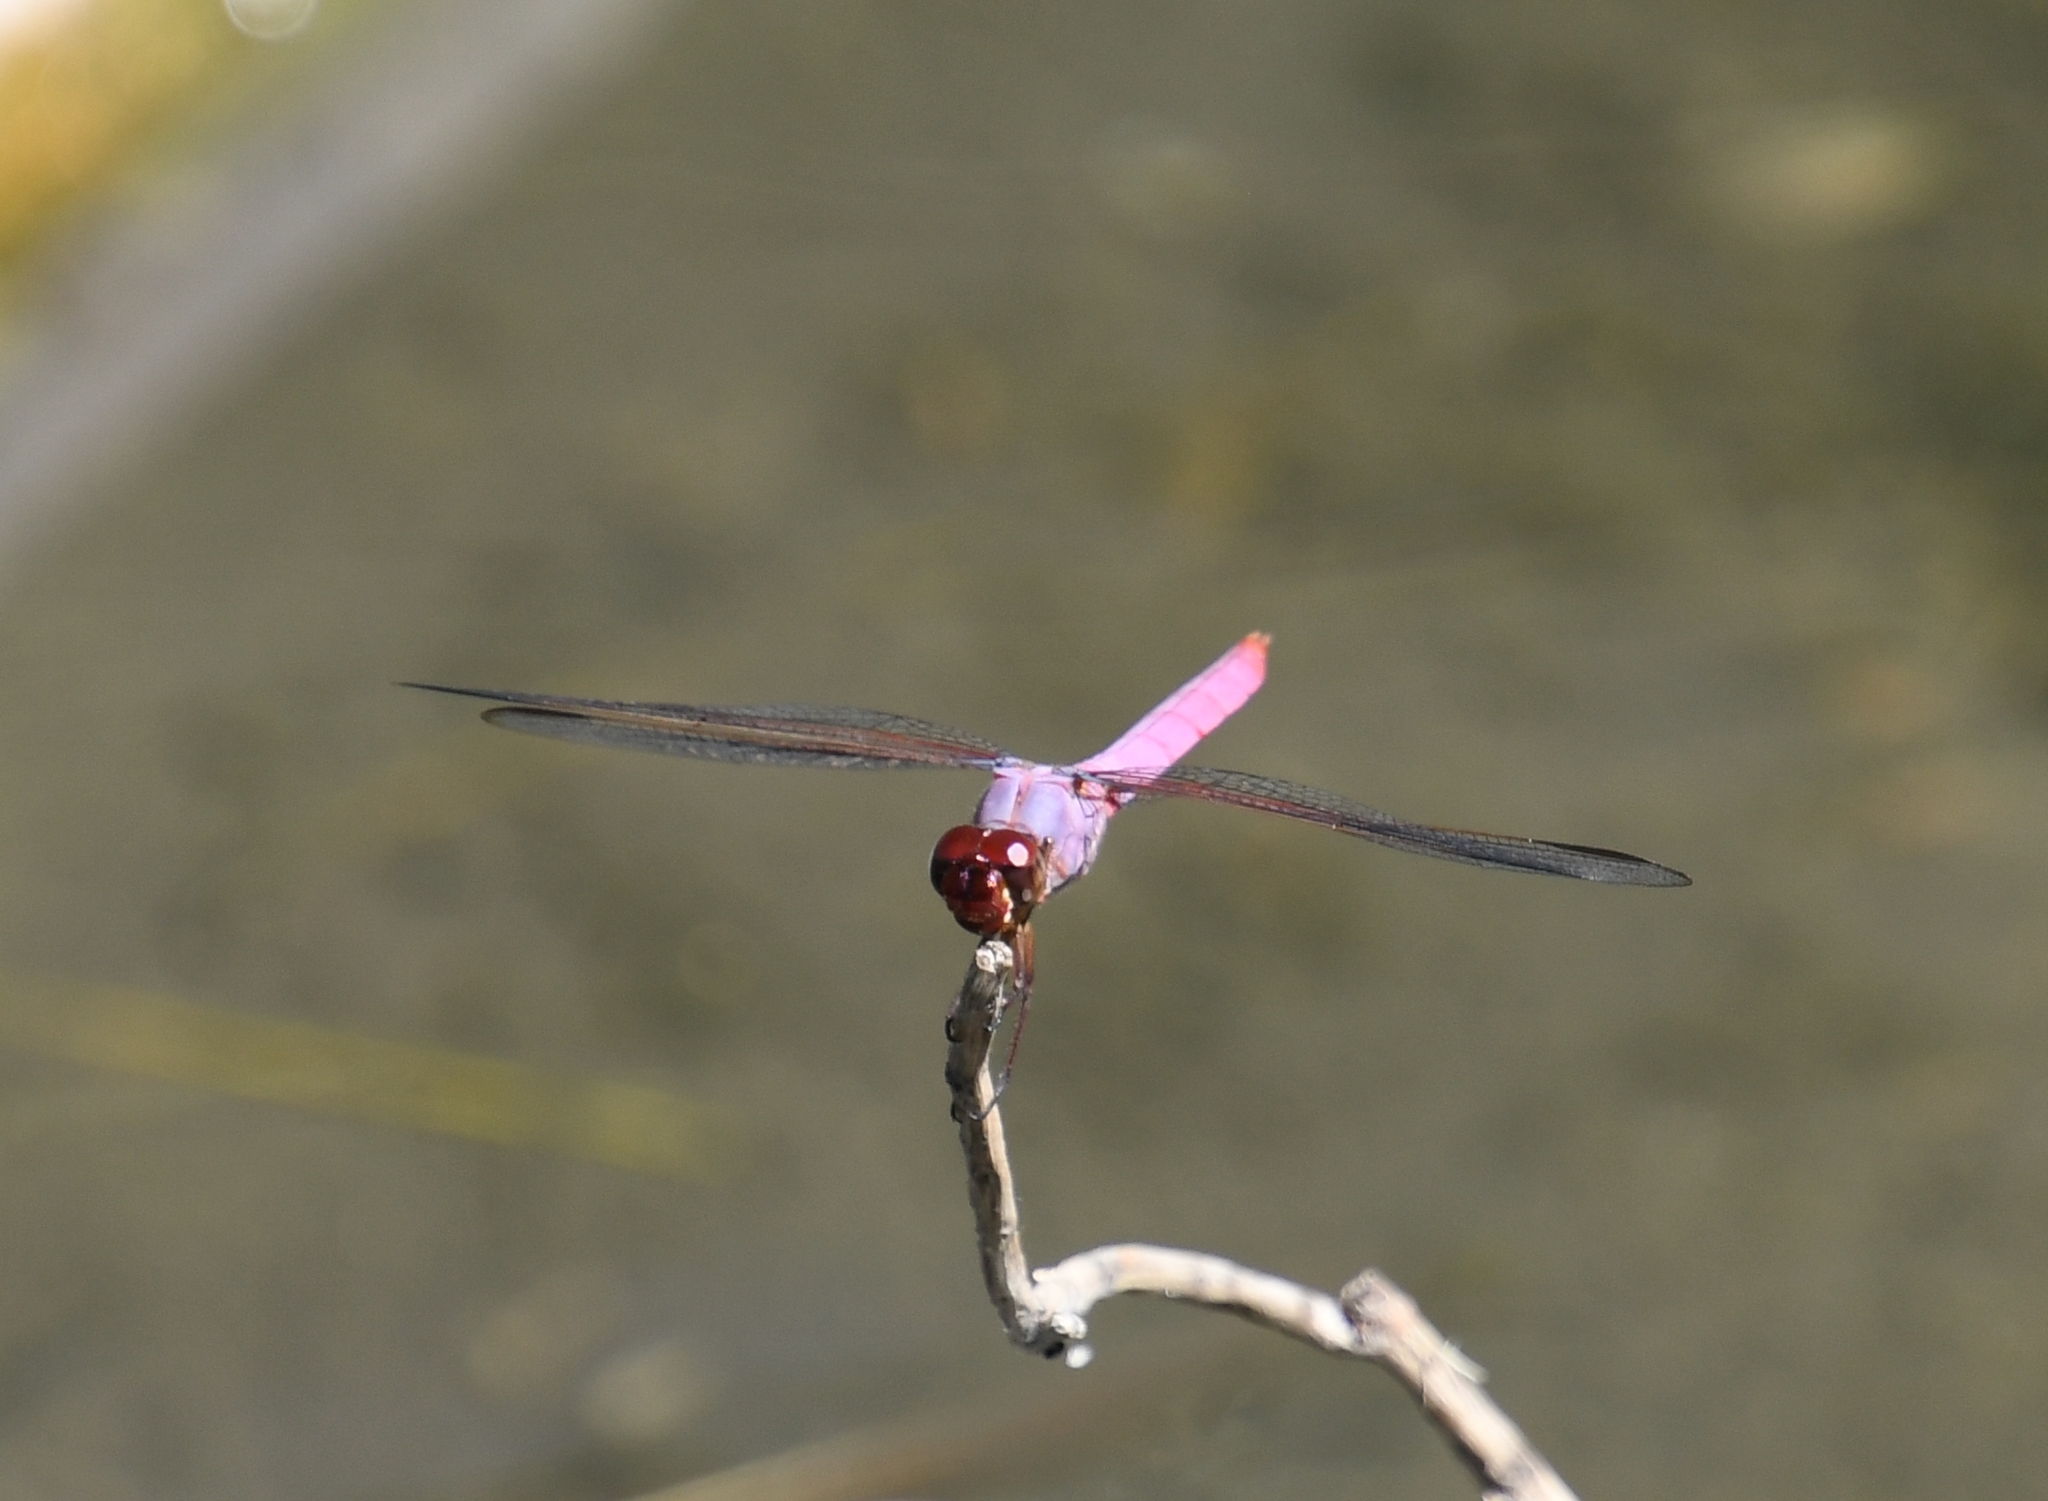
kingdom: Animalia
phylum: Arthropoda
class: Insecta
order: Odonata
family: Libellulidae
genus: Orthemis
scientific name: Orthemis ferruginea
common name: Roseate skimmer
